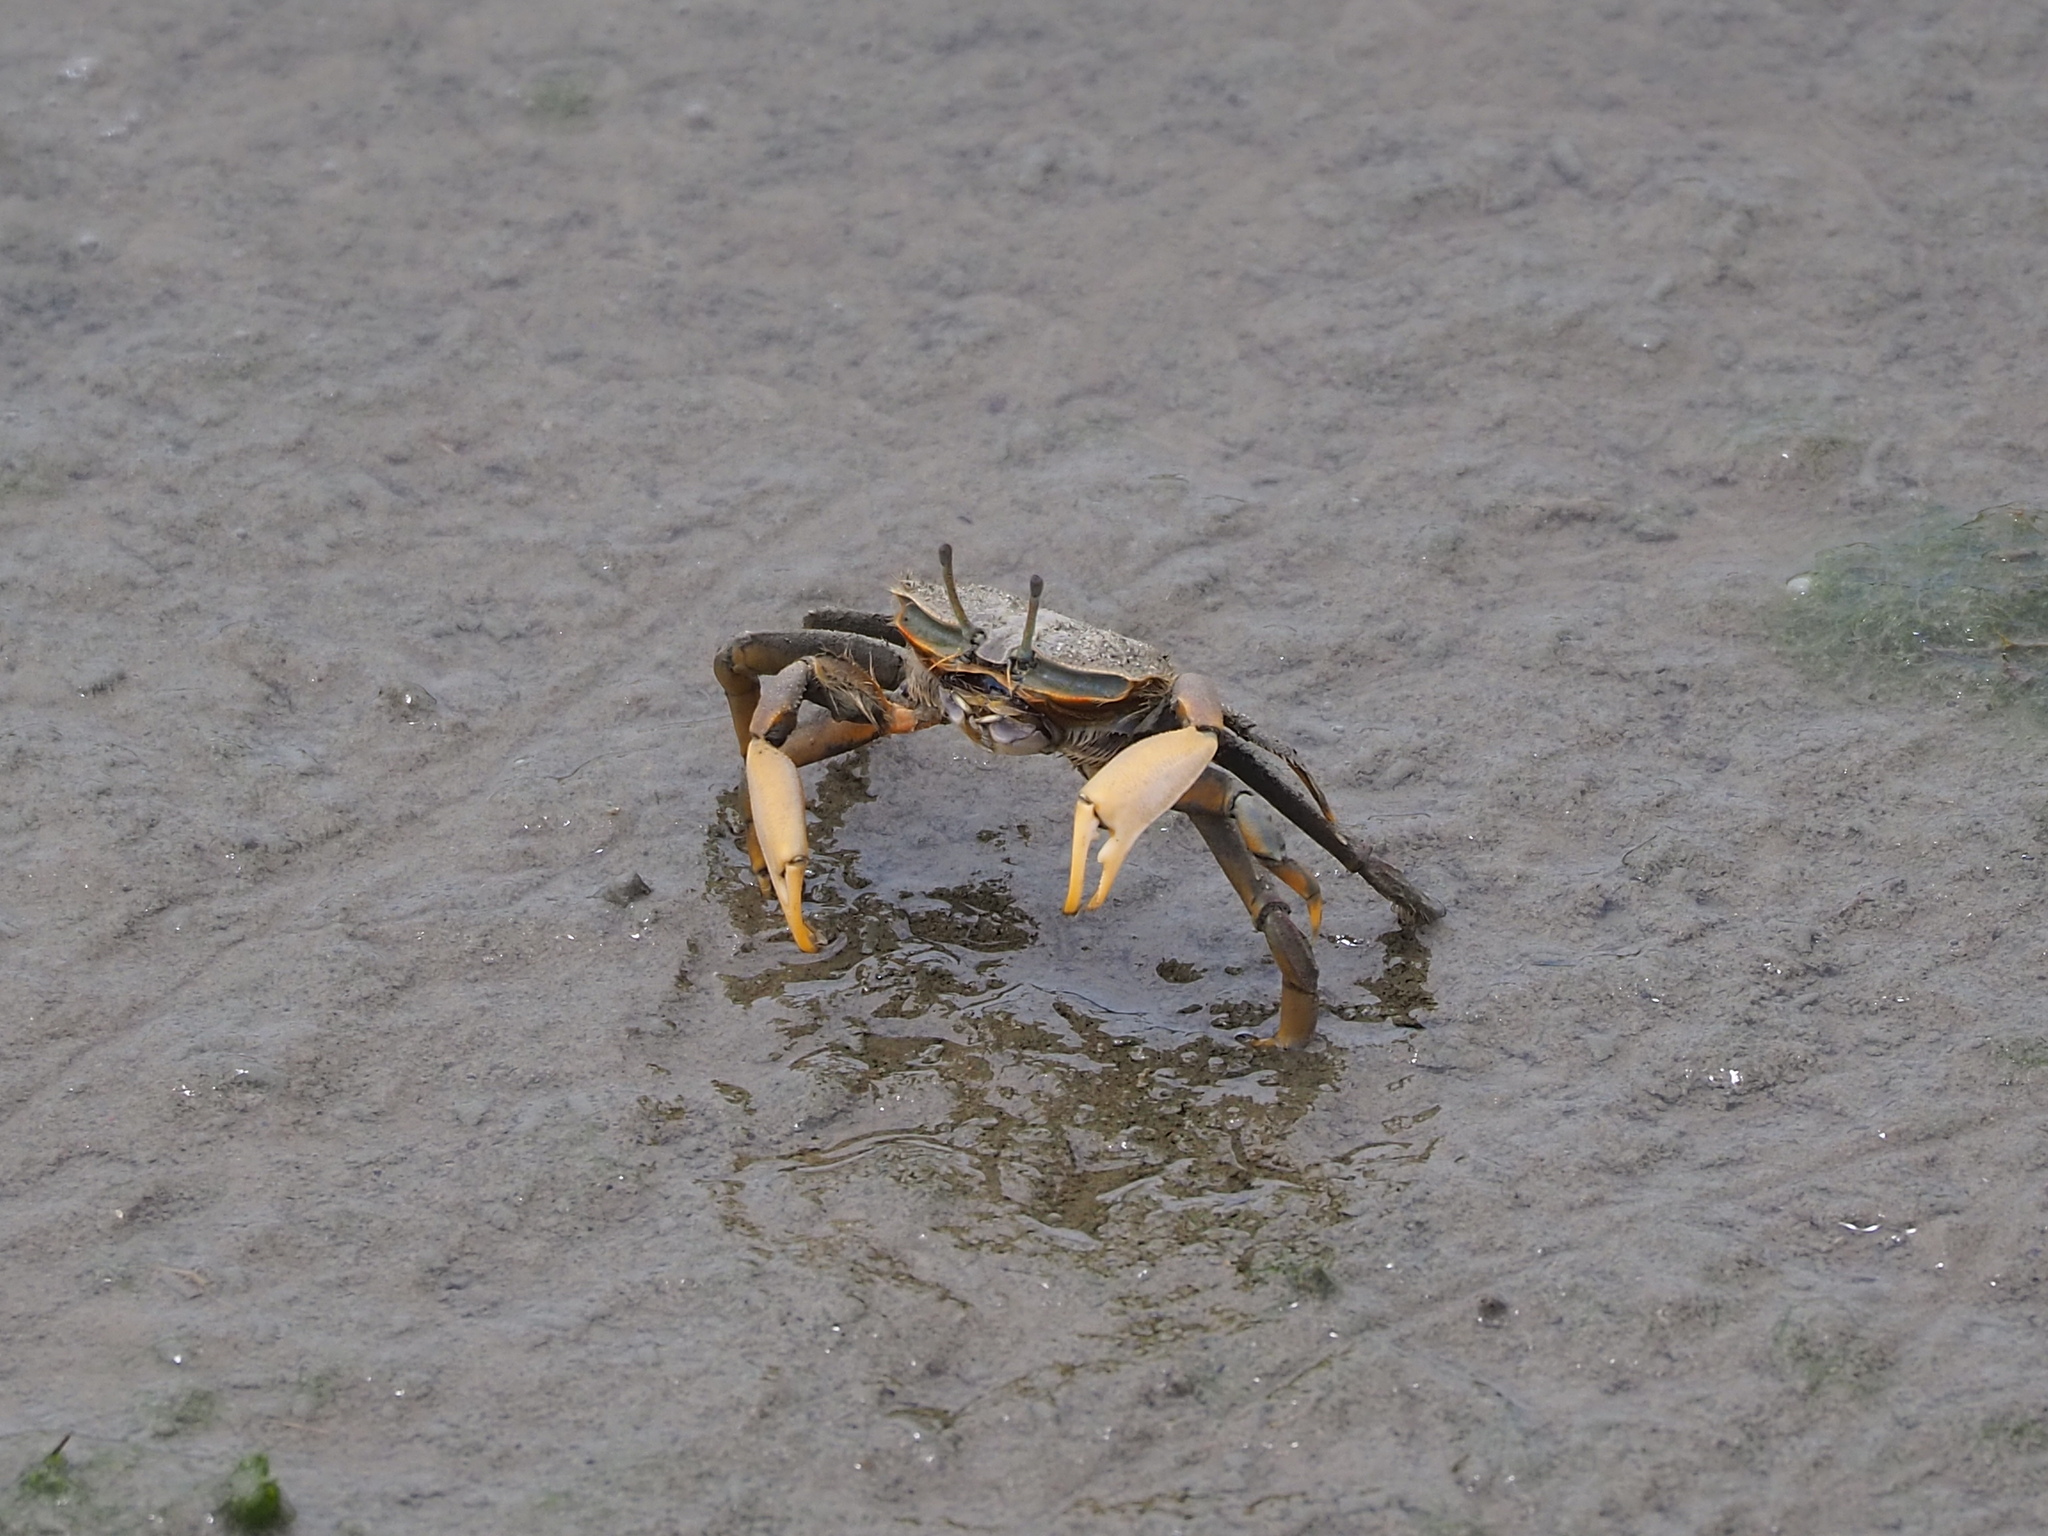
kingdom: Animalia
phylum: Arthropoda
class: Malacostraca
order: Decapoda
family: Macrophthalmidae
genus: Macrophthalmus
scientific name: Macrophthalmus banzai
